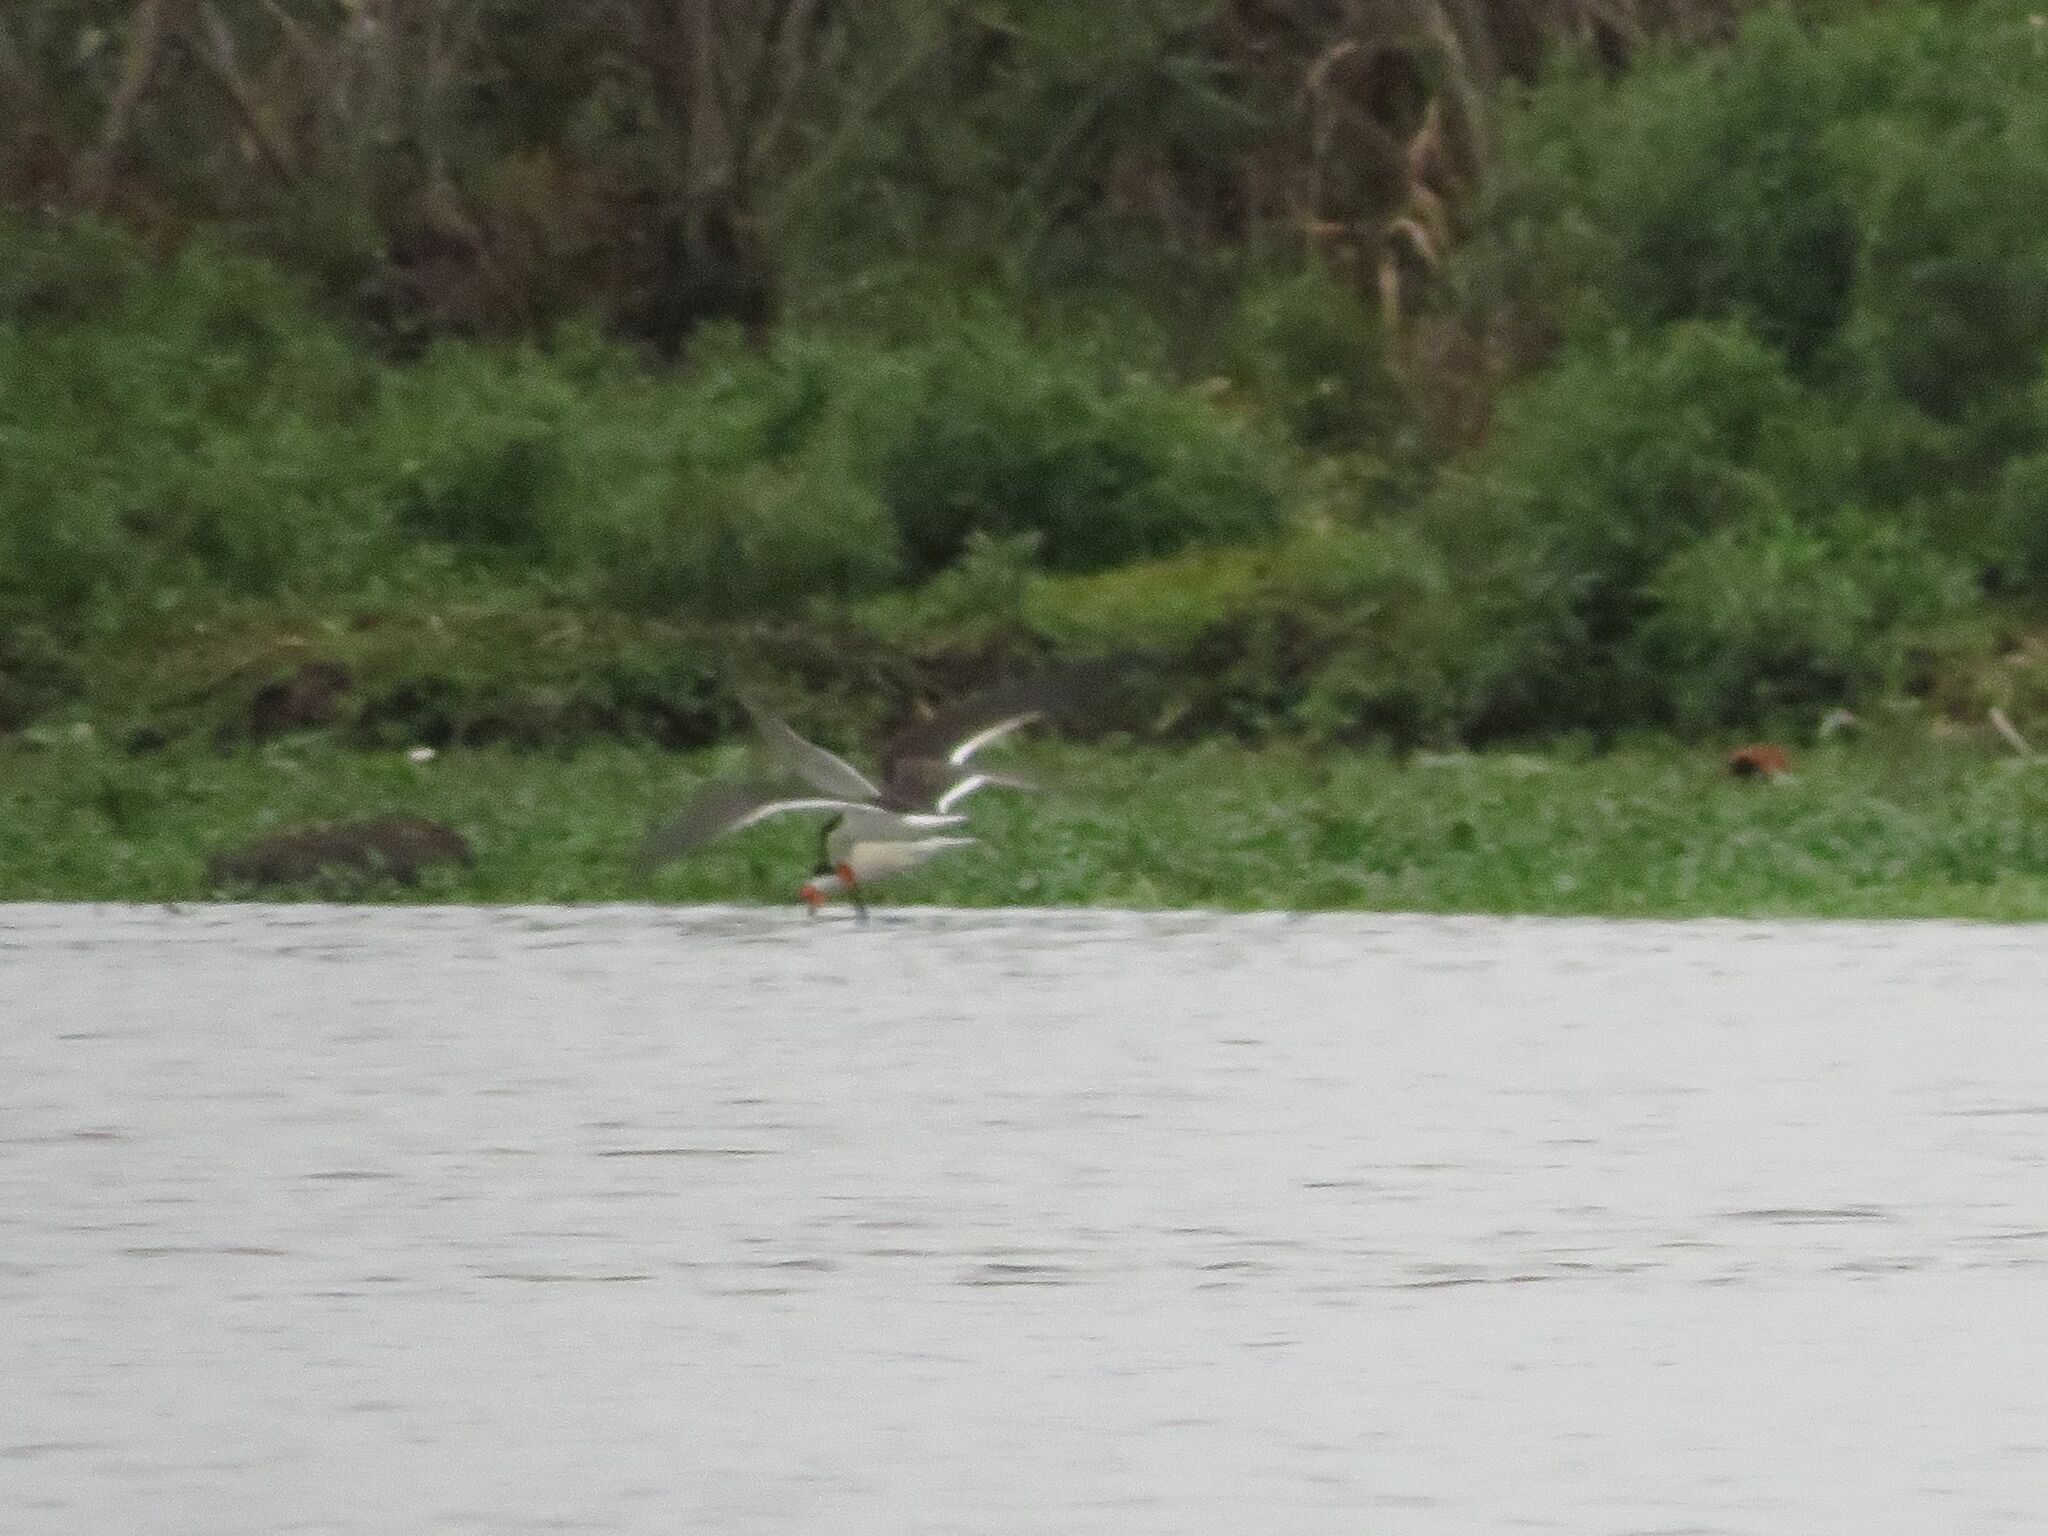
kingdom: Animalia
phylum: Chordata
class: Aves
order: Charadriiformes
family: Laridae
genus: Rynchops
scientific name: Rynchops niger
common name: Black skimmer
